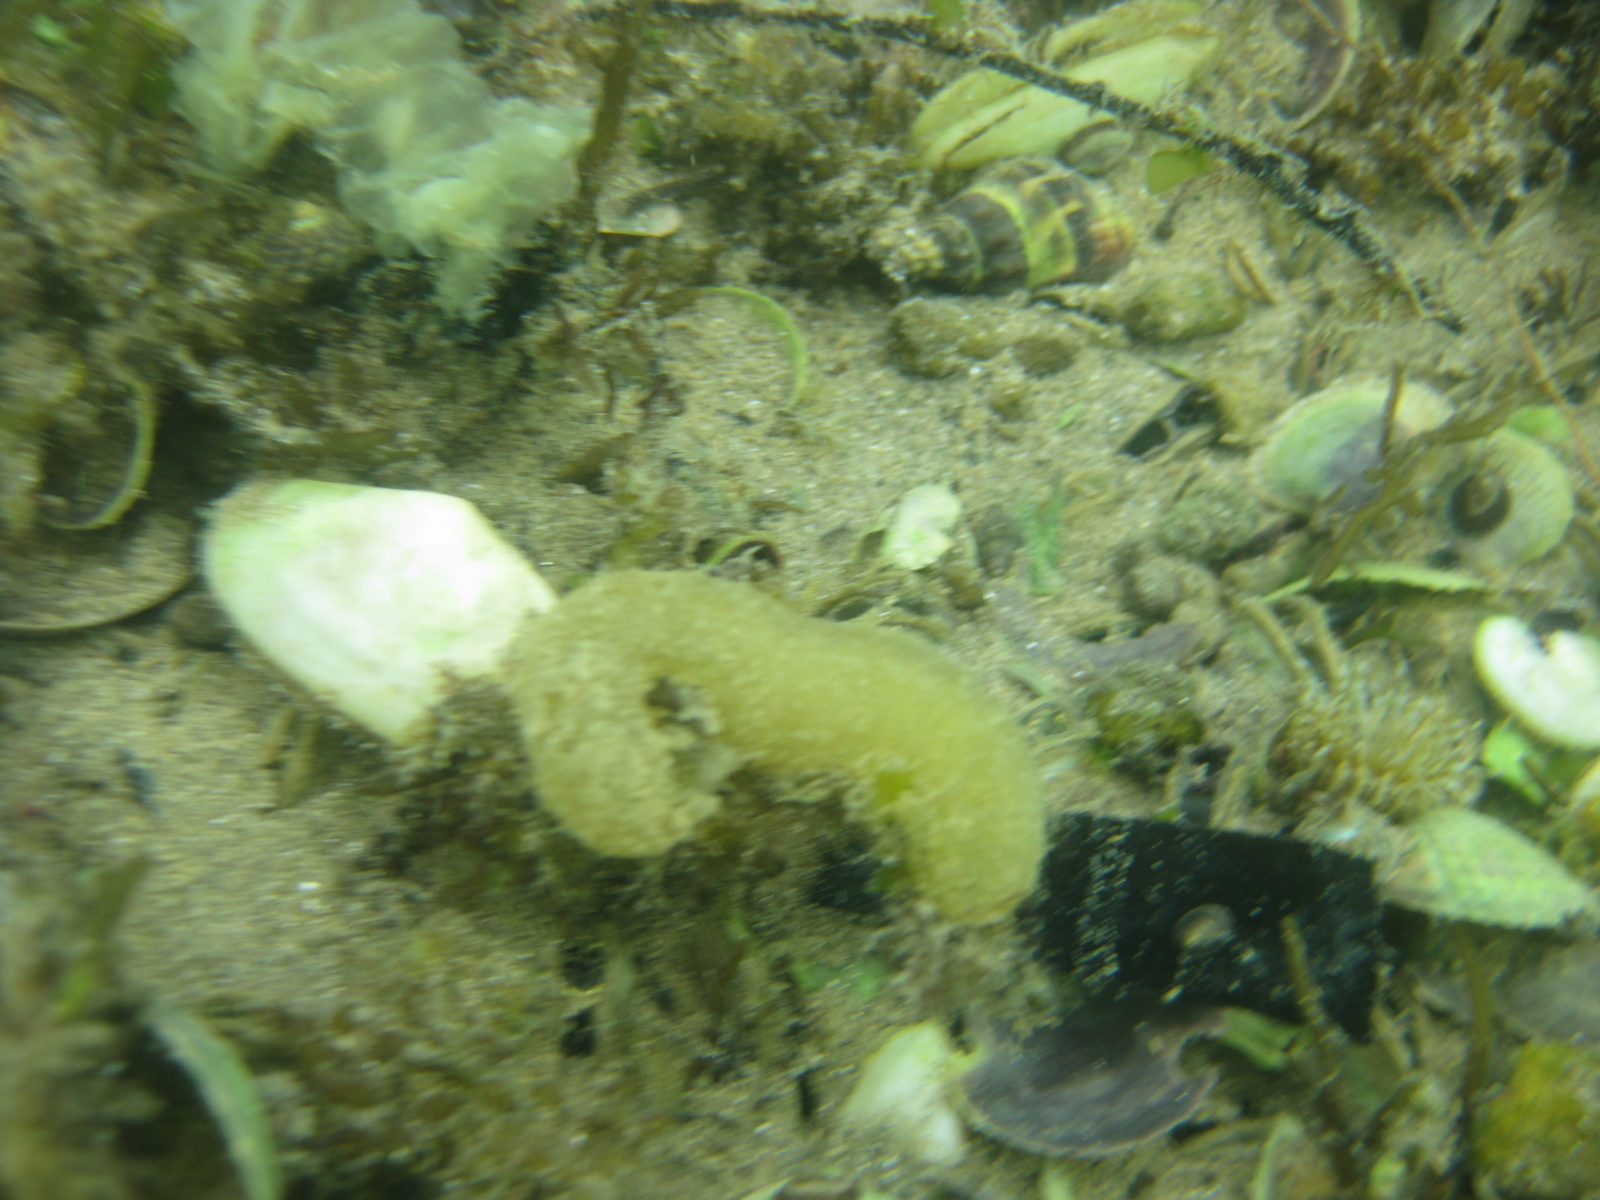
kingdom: Animalia
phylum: Mollusca
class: Gastropoda
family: Batillariidae
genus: Zeacumantus
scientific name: Zeacumantus lutulentus
